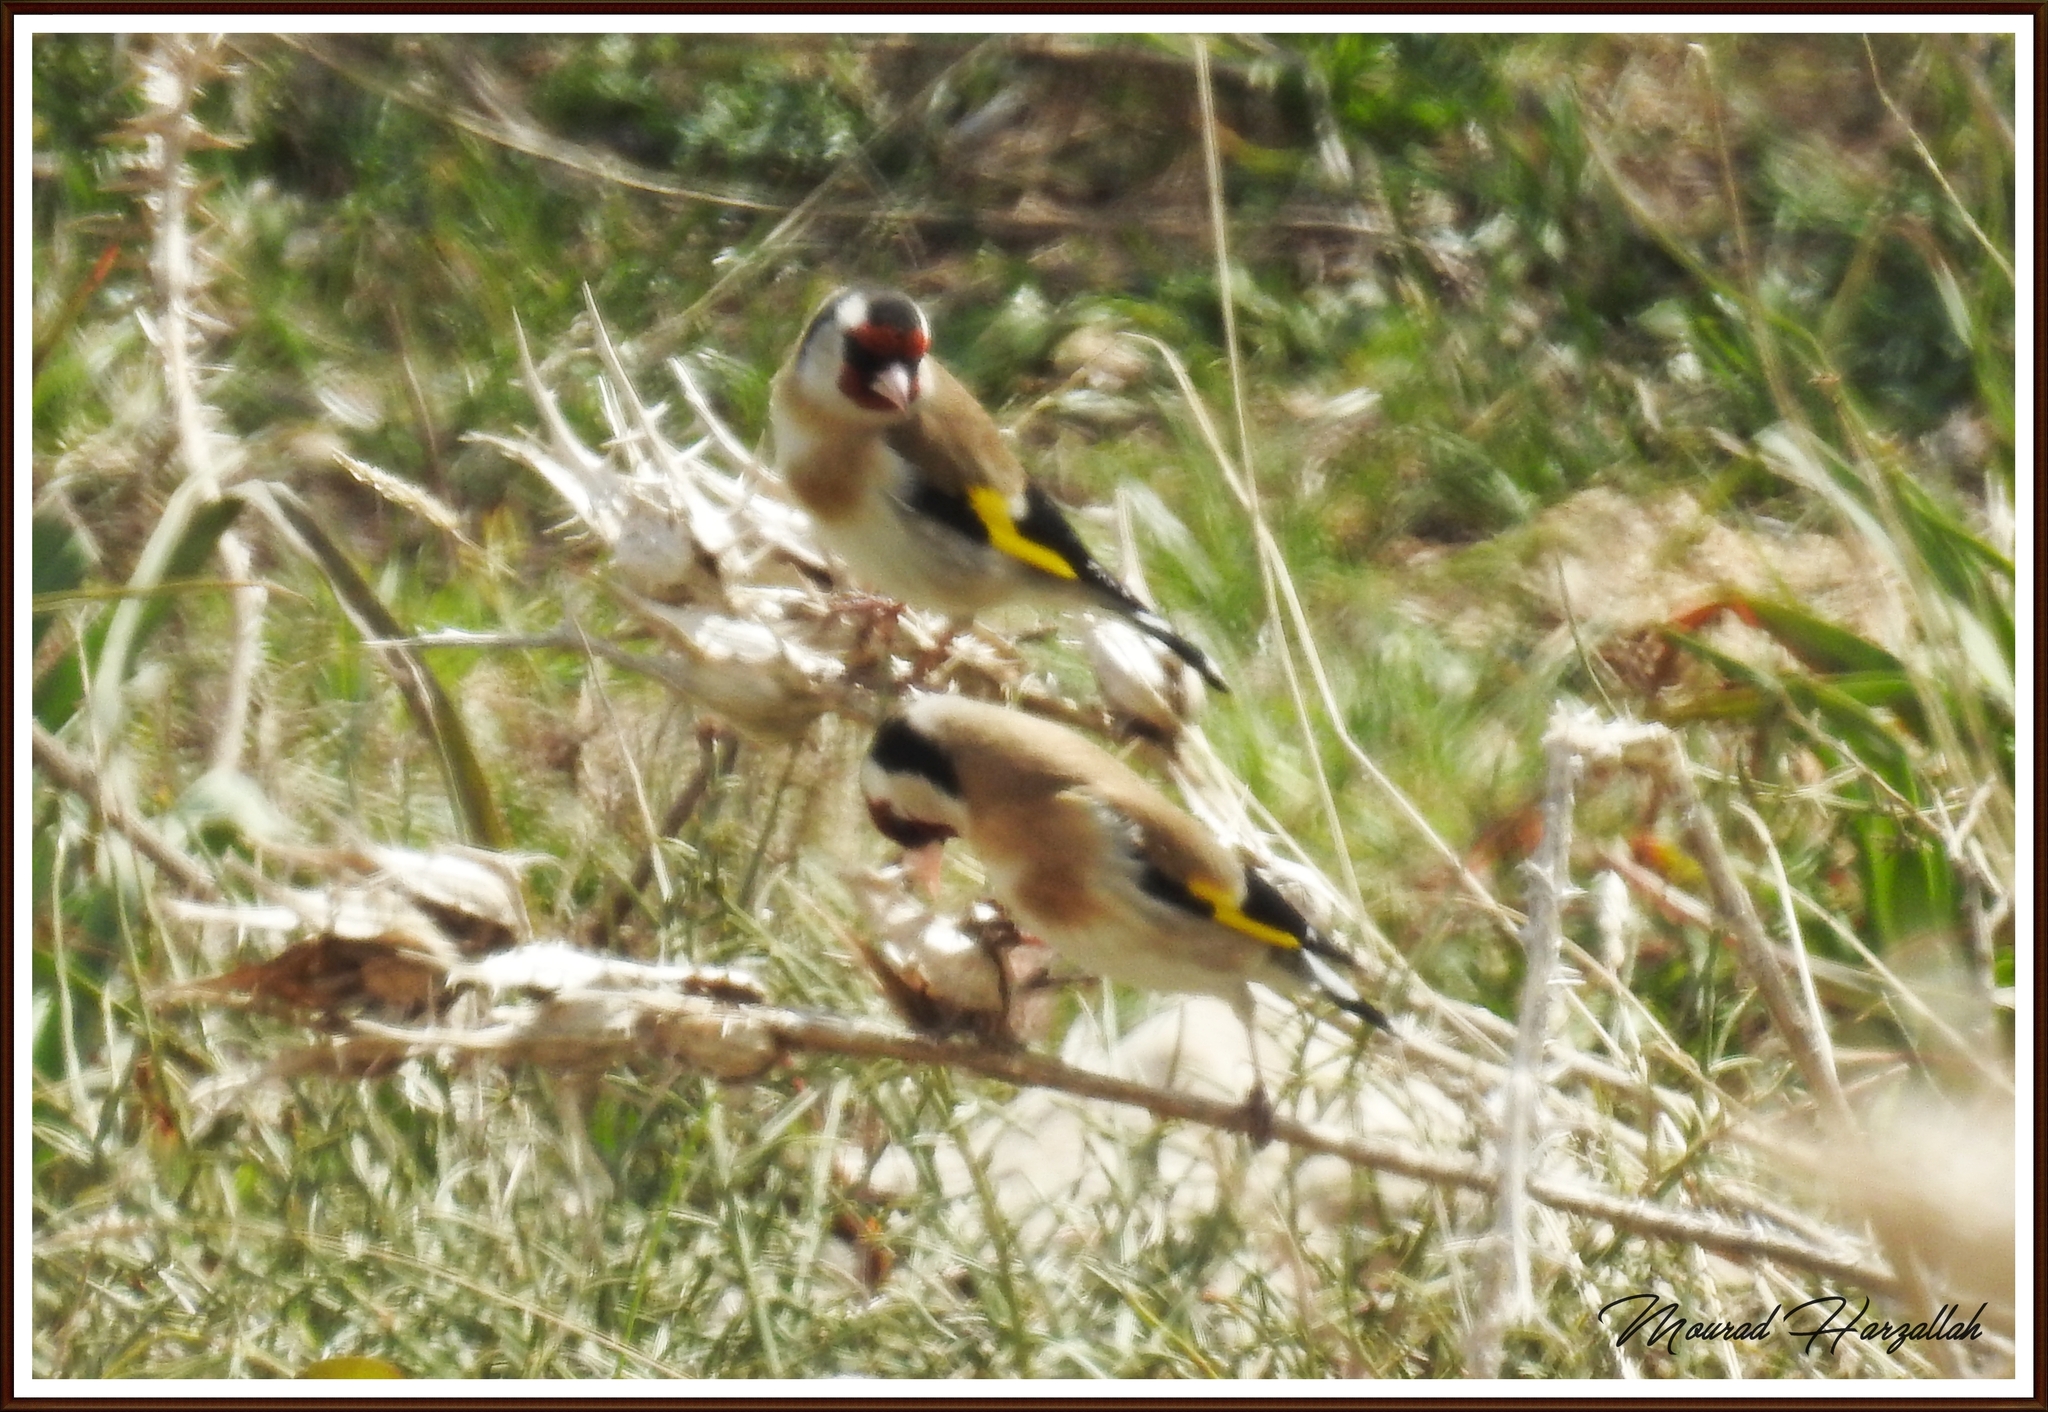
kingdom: Animalia
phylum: Chordata
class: Aves
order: Passeriformes
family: Fringillidae
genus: Carduelis
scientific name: Carduelis carduelis
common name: European goldfinch
